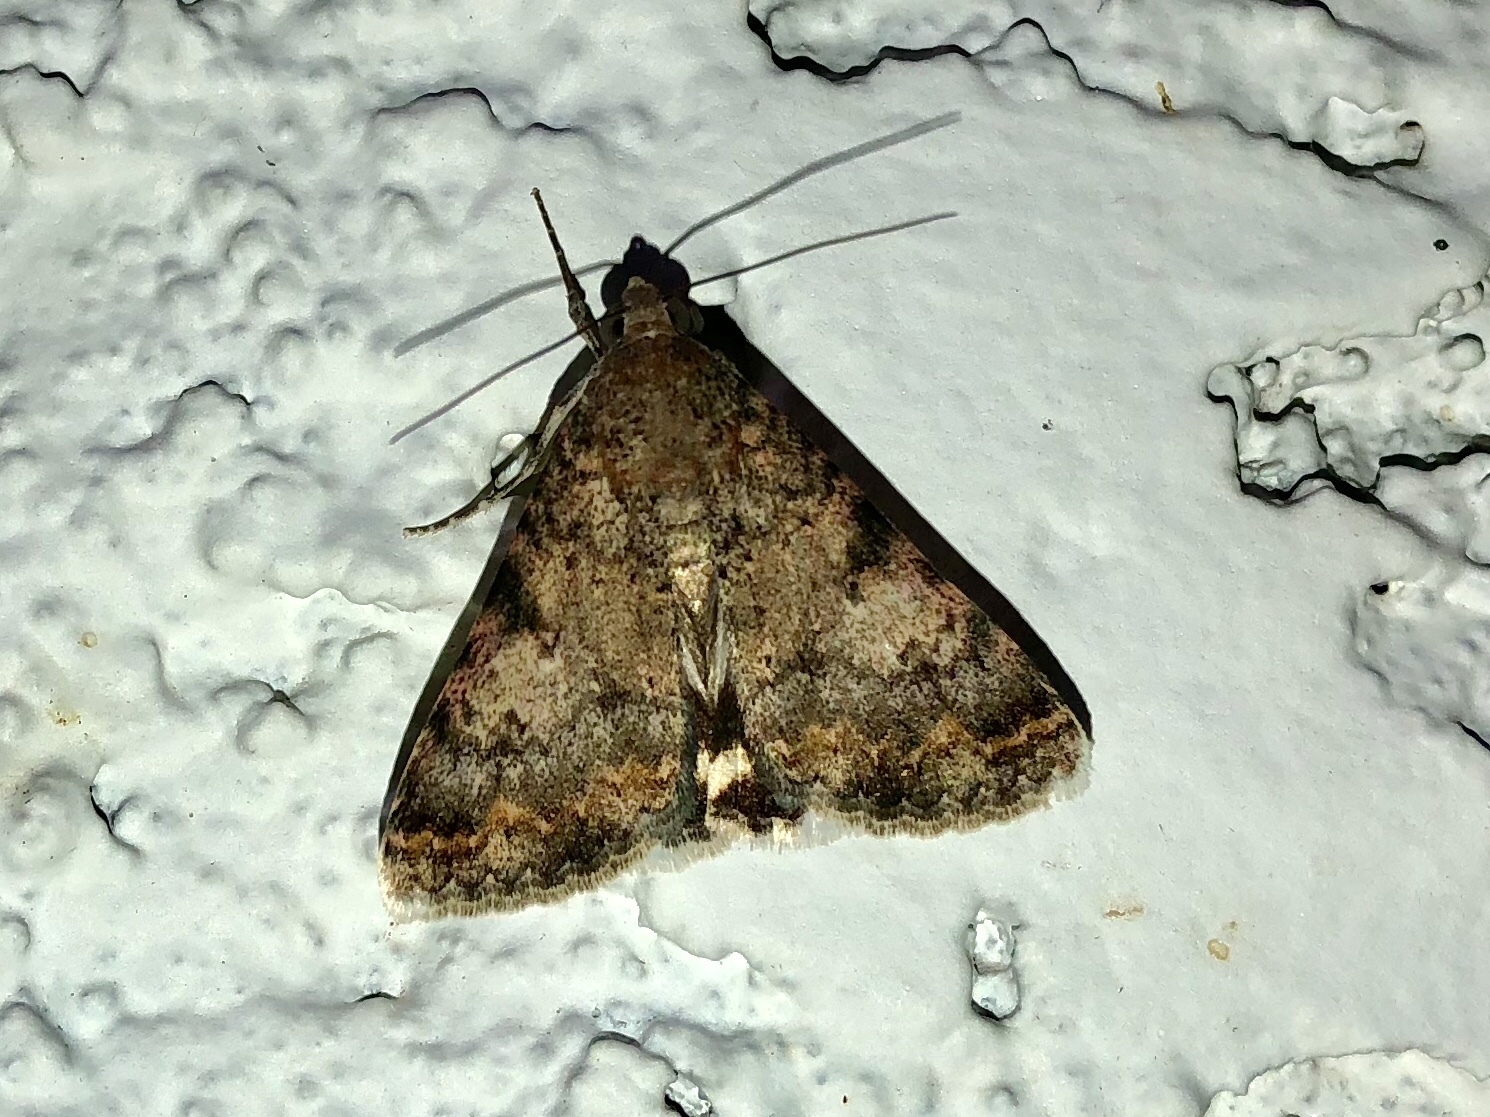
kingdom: Animalia
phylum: Arthropoda
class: Insecta
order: Lepidoptera
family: Erebidae
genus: Melipotis
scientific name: Melipotis jucunda
